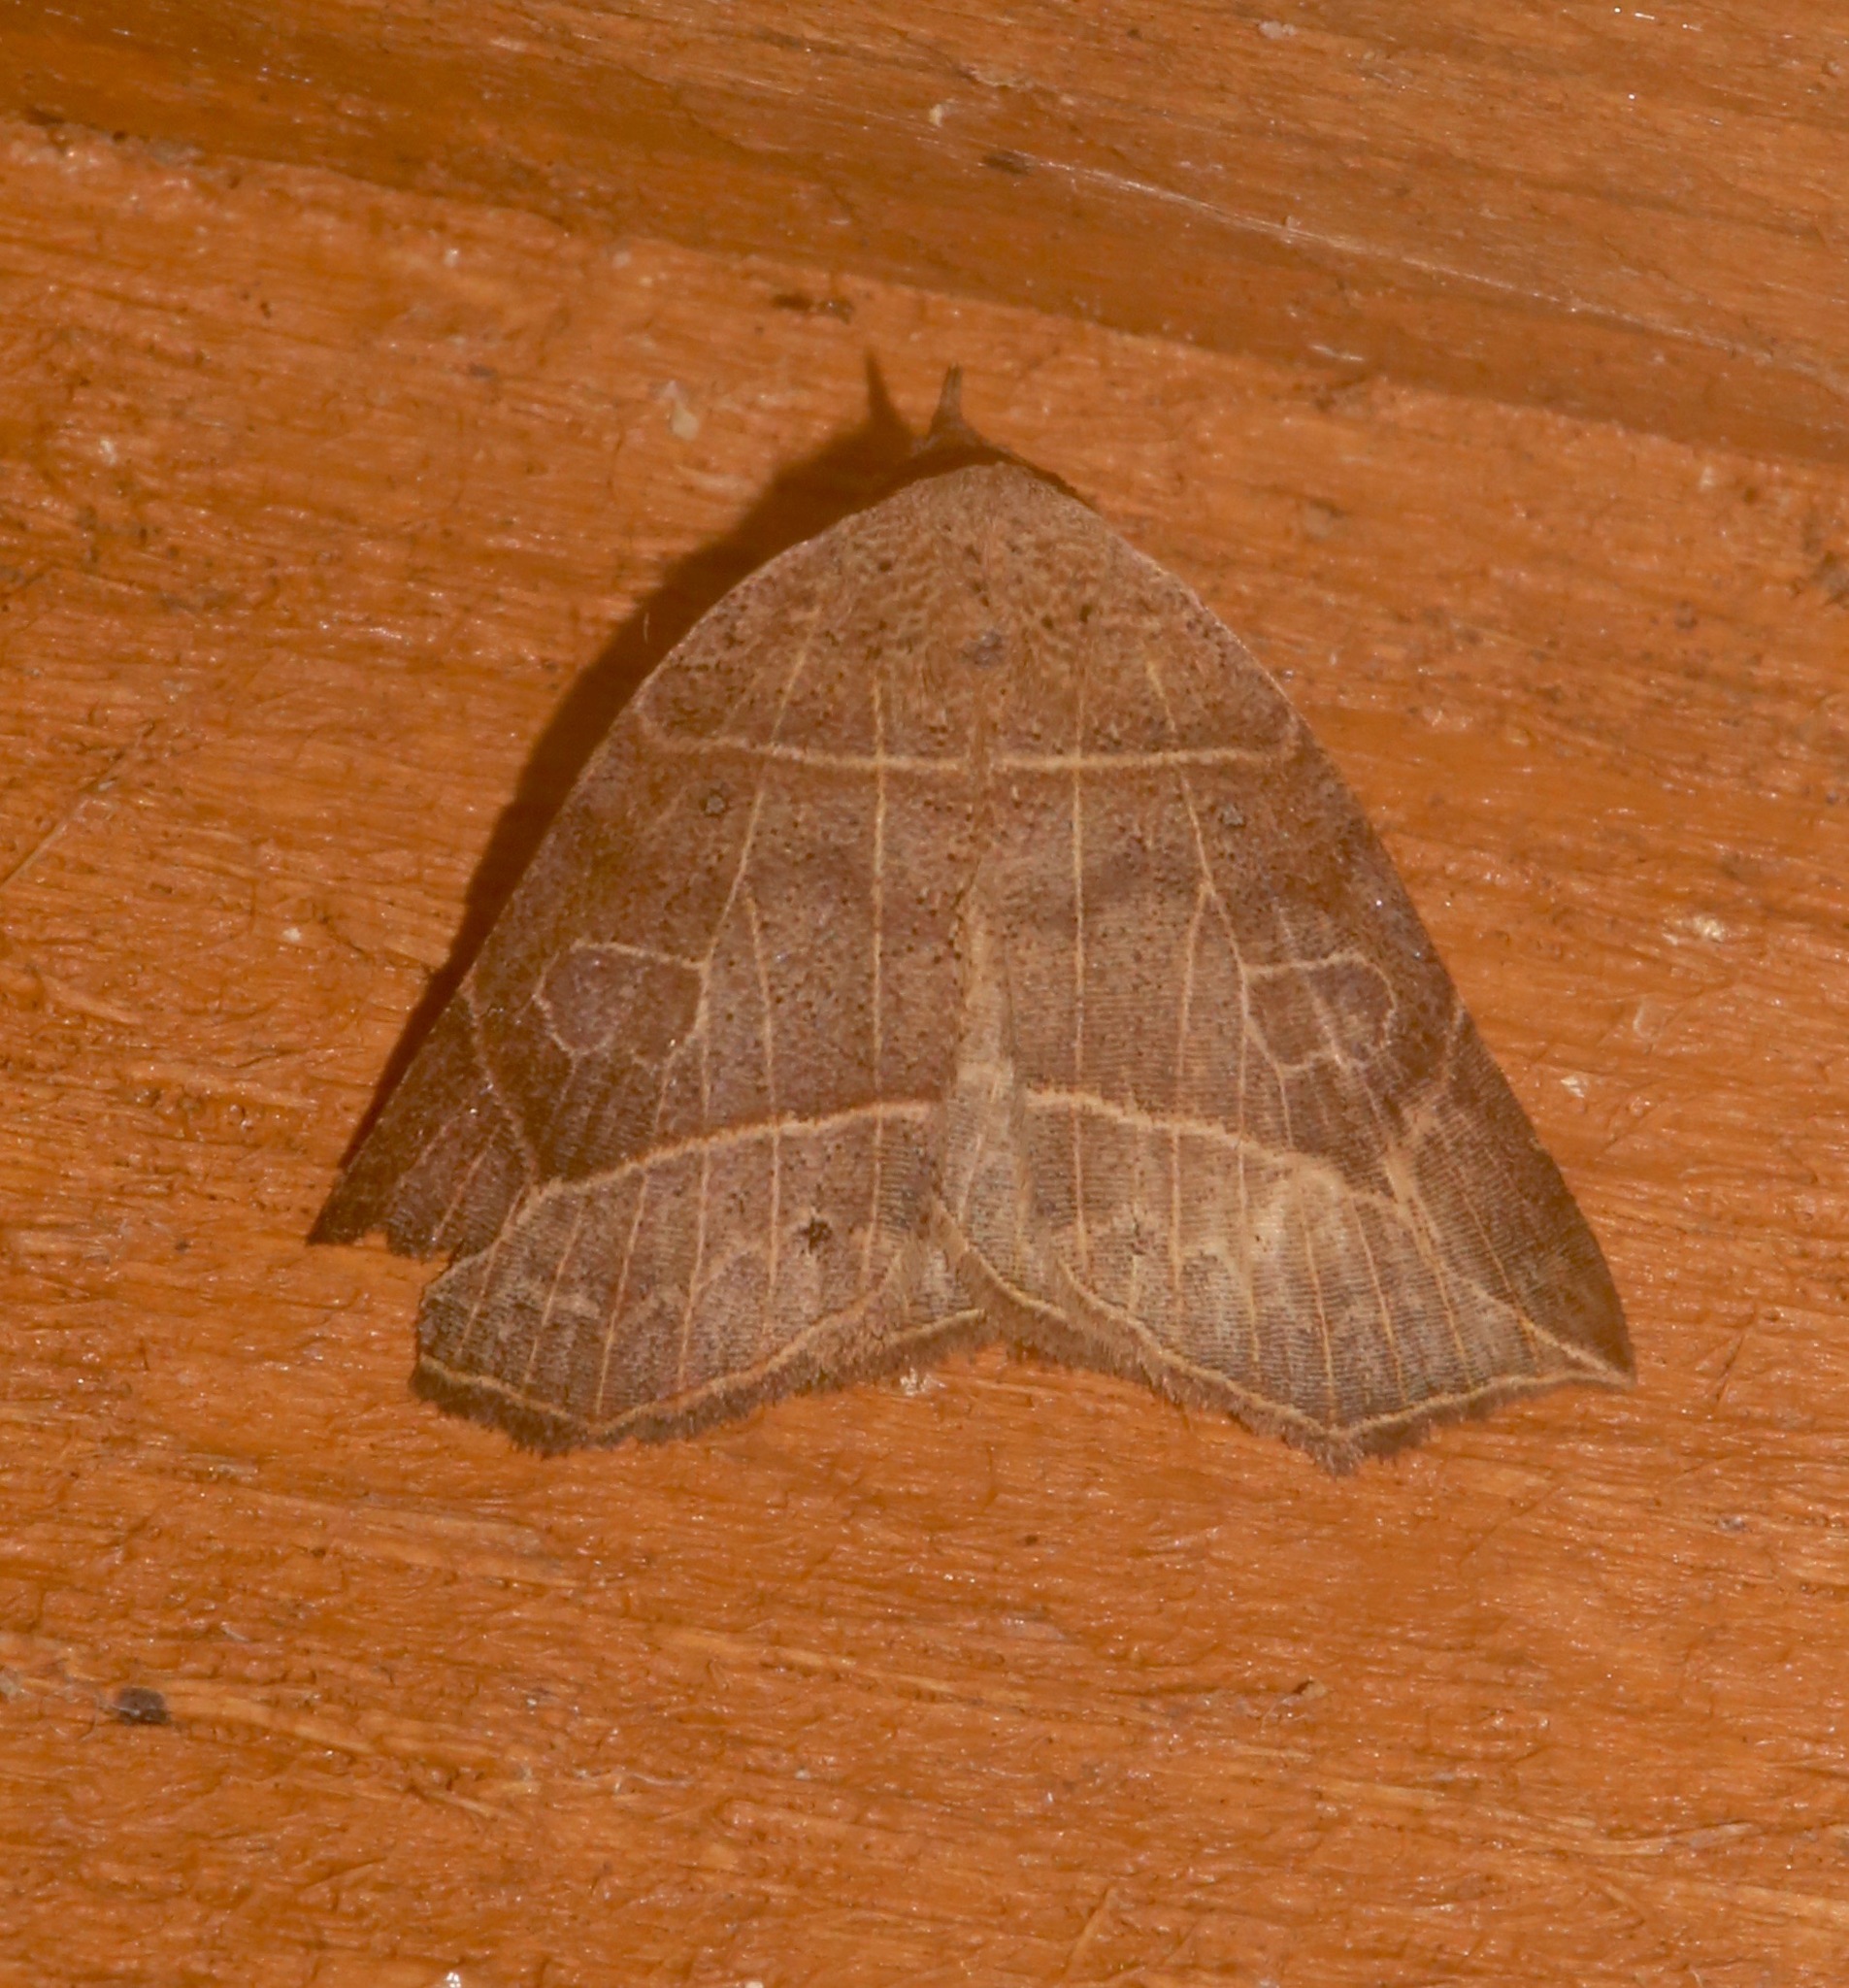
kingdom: Animalia
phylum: Arthropoda
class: Insecta
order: Lepidoptera
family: Erebidae
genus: Isogona
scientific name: Isogona tenuis
